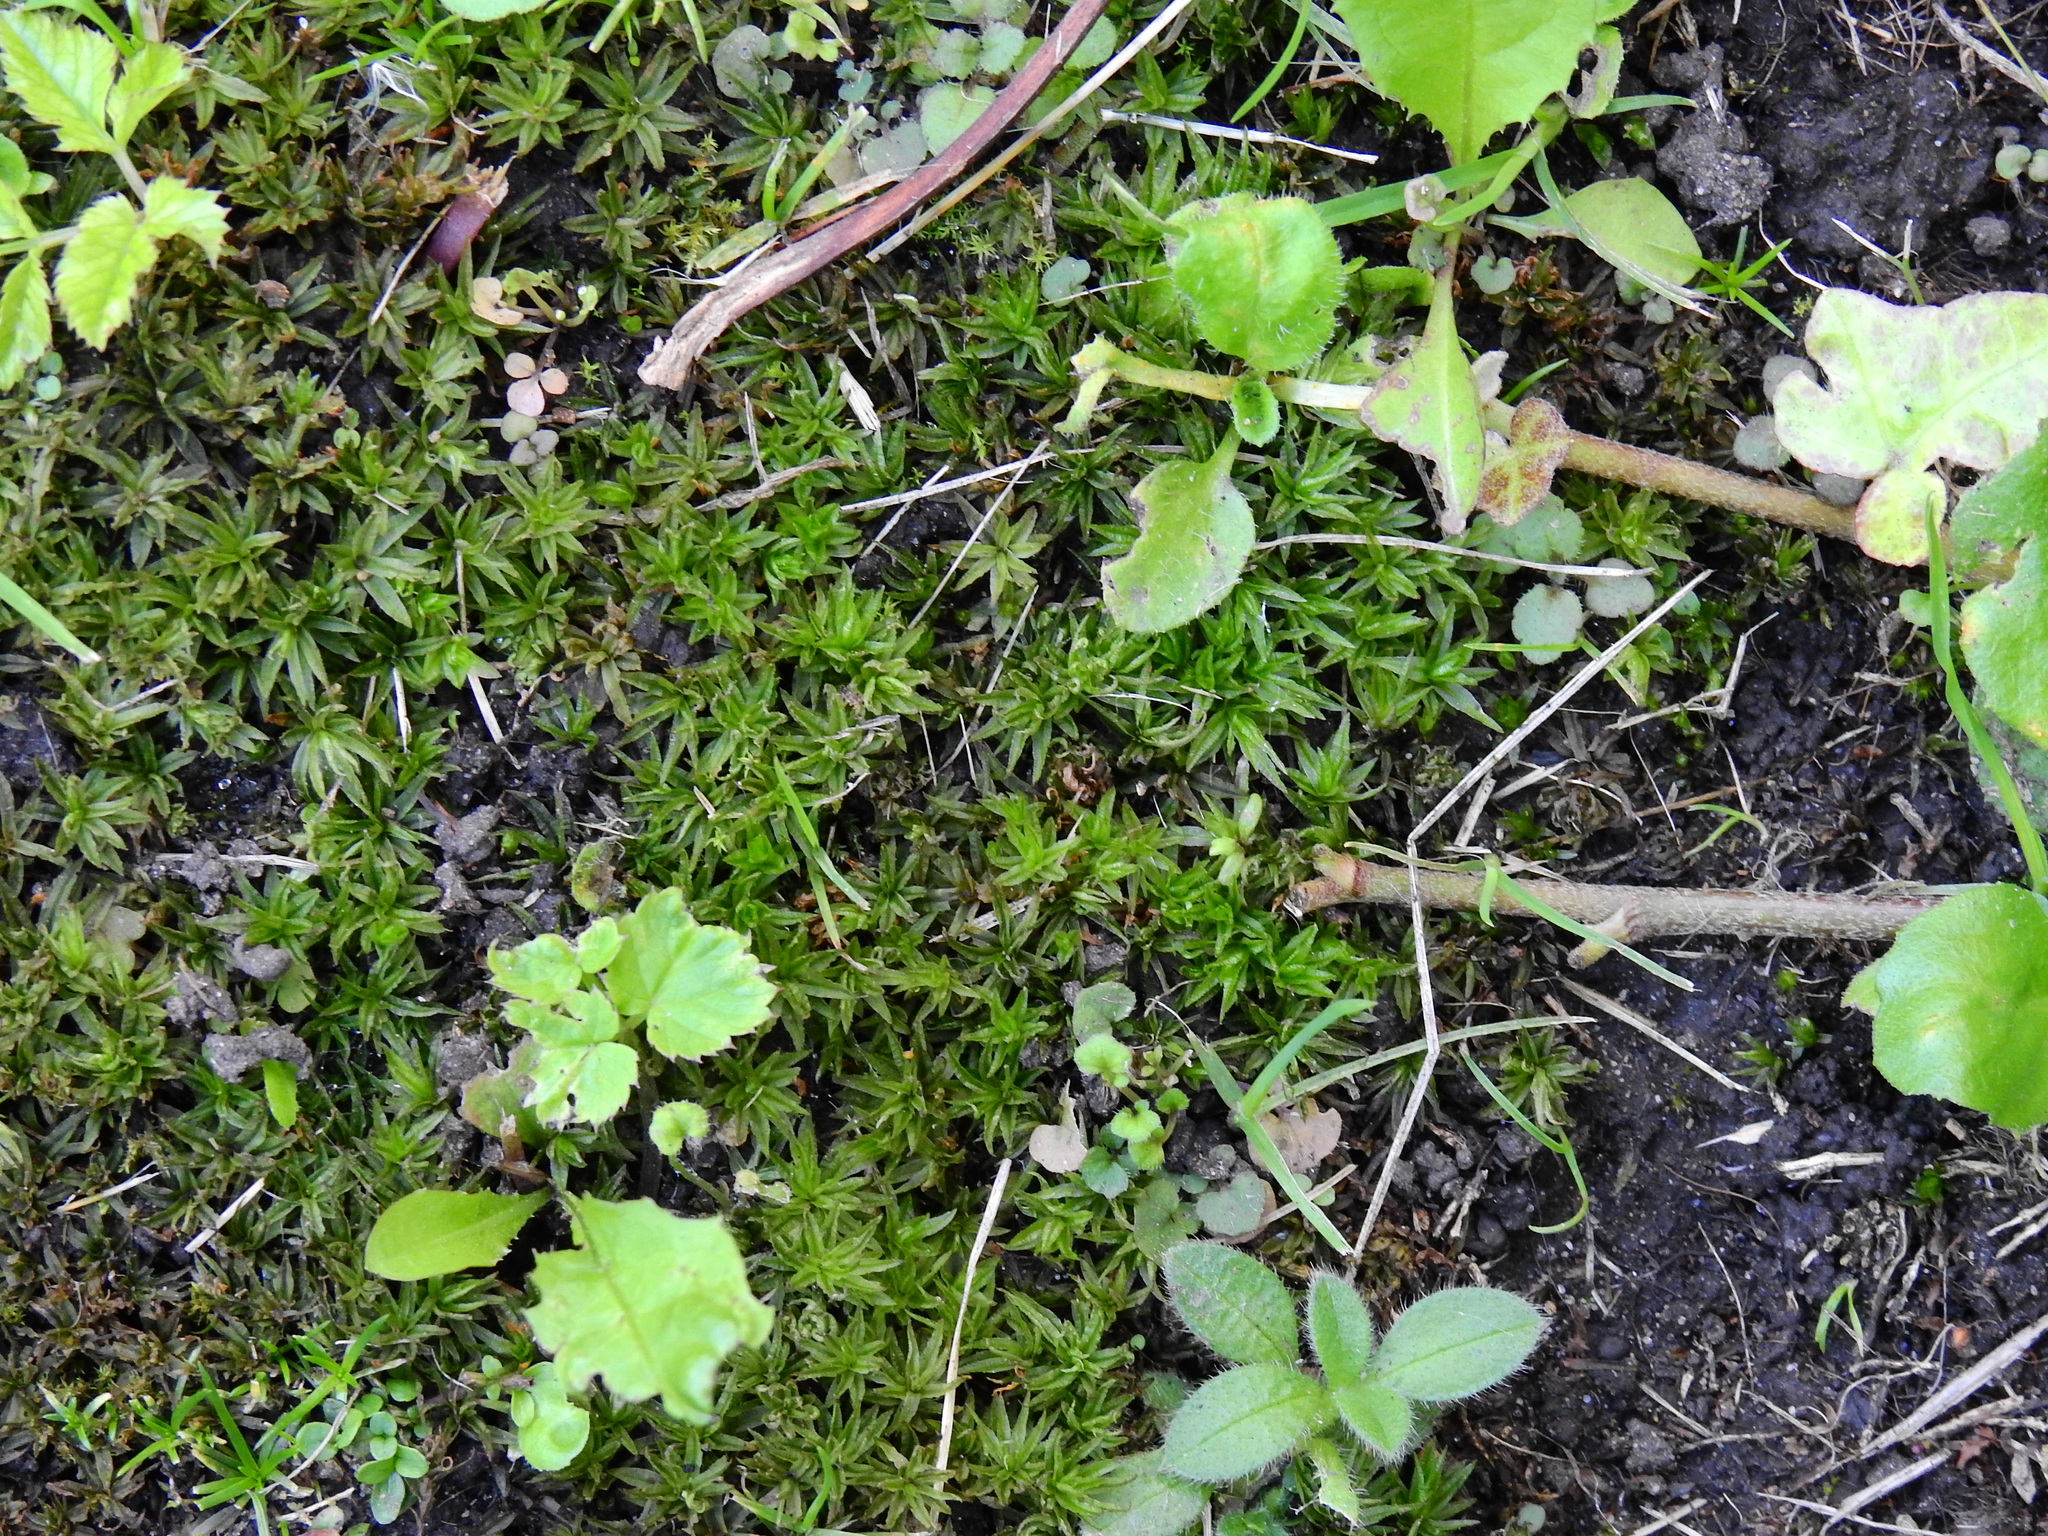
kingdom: Plantae
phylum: Bryophyta
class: Polytrichopsida
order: Polytrichales
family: Polytrichaceae
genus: Atrichum
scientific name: Atrichum undulatum
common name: Common smoothcap
